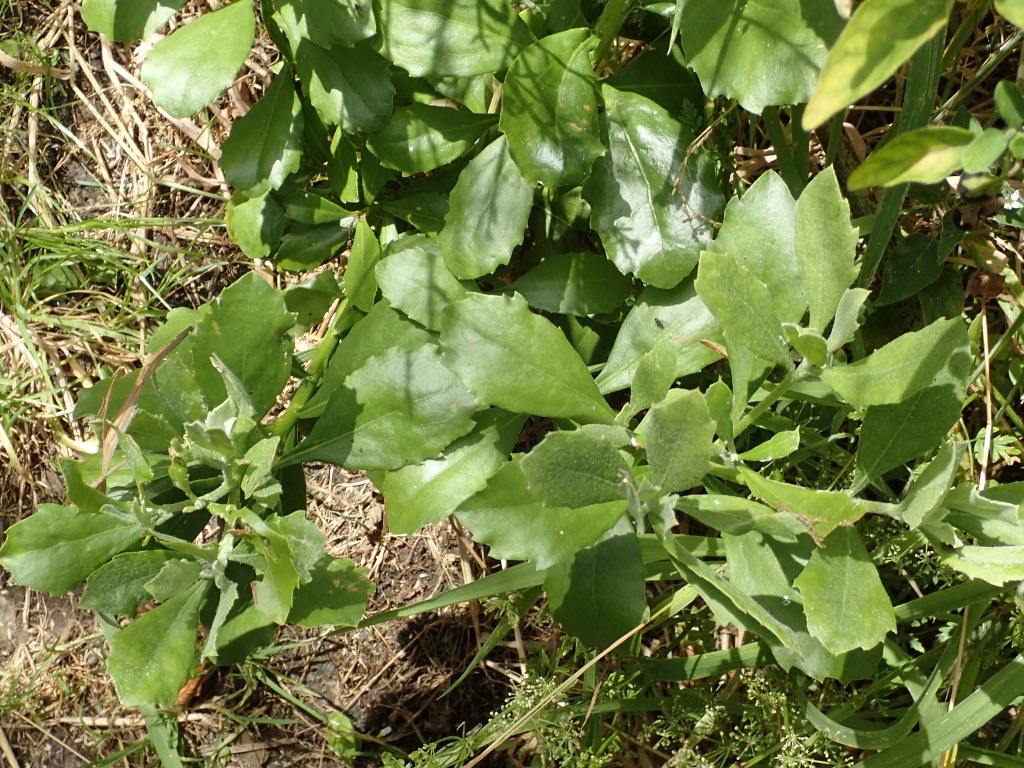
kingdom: Plantae
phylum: Tracheophyta
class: Magnoliopsida
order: Asterales
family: Asteraceae
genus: Osteospermum
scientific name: Osteospermum moniliferum
